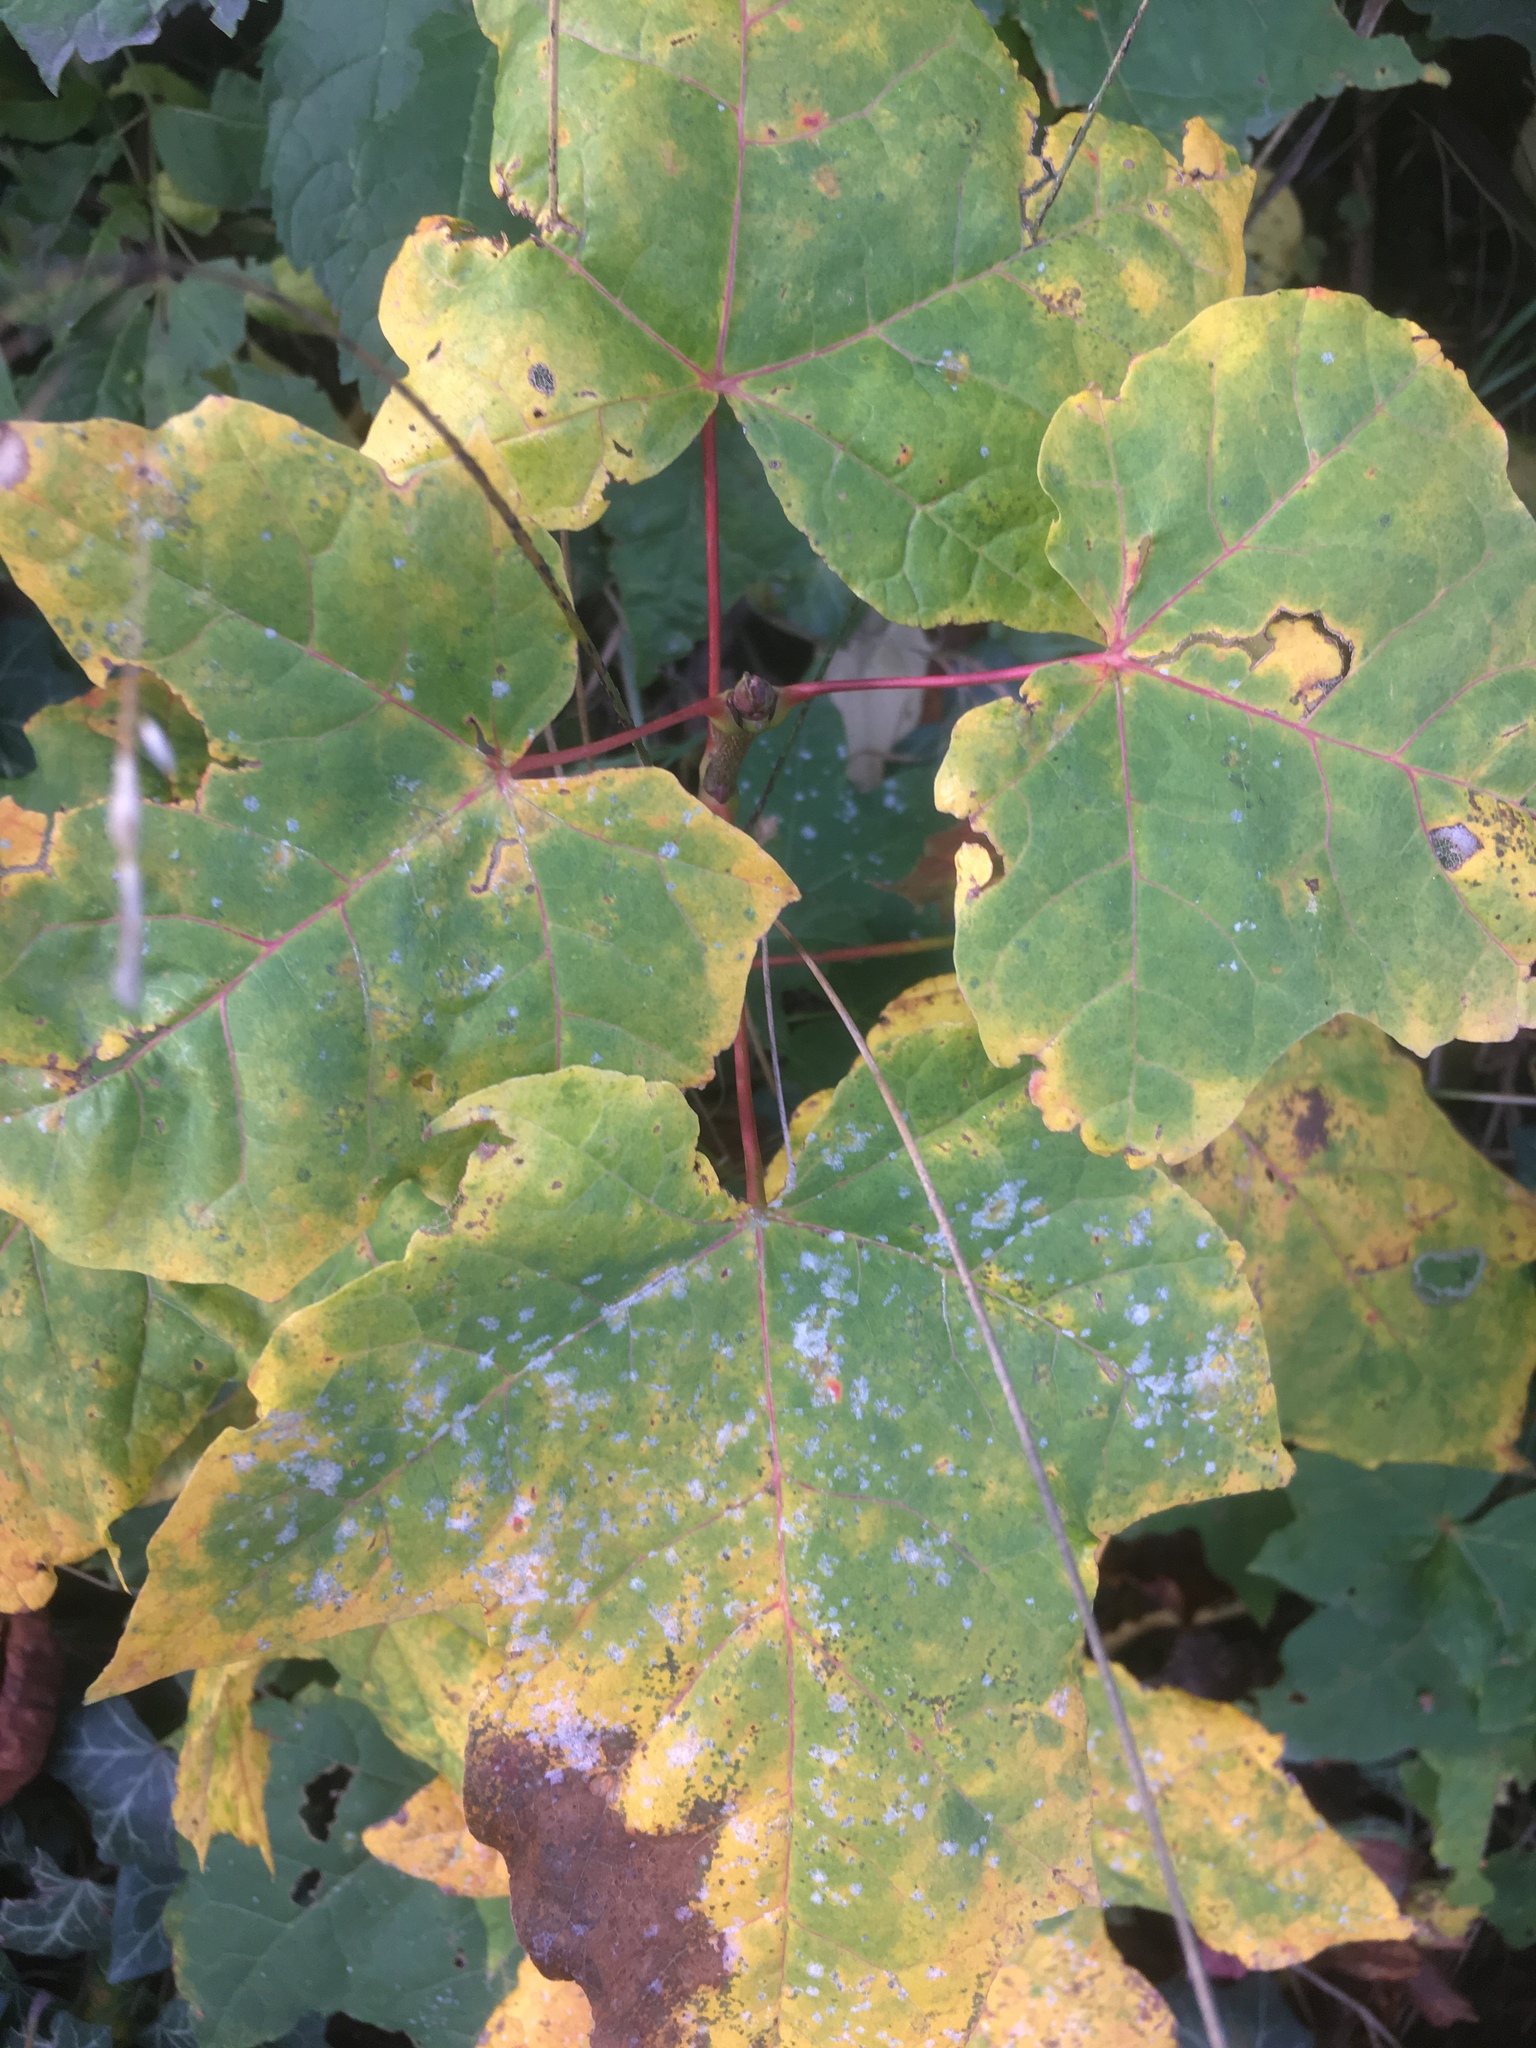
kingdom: Plantae
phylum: Tracheophyta
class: Magnoliopsida
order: Sapindales
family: Sapindaceae
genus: Acer
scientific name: Acer pseudoplatanus
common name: Sycamore
